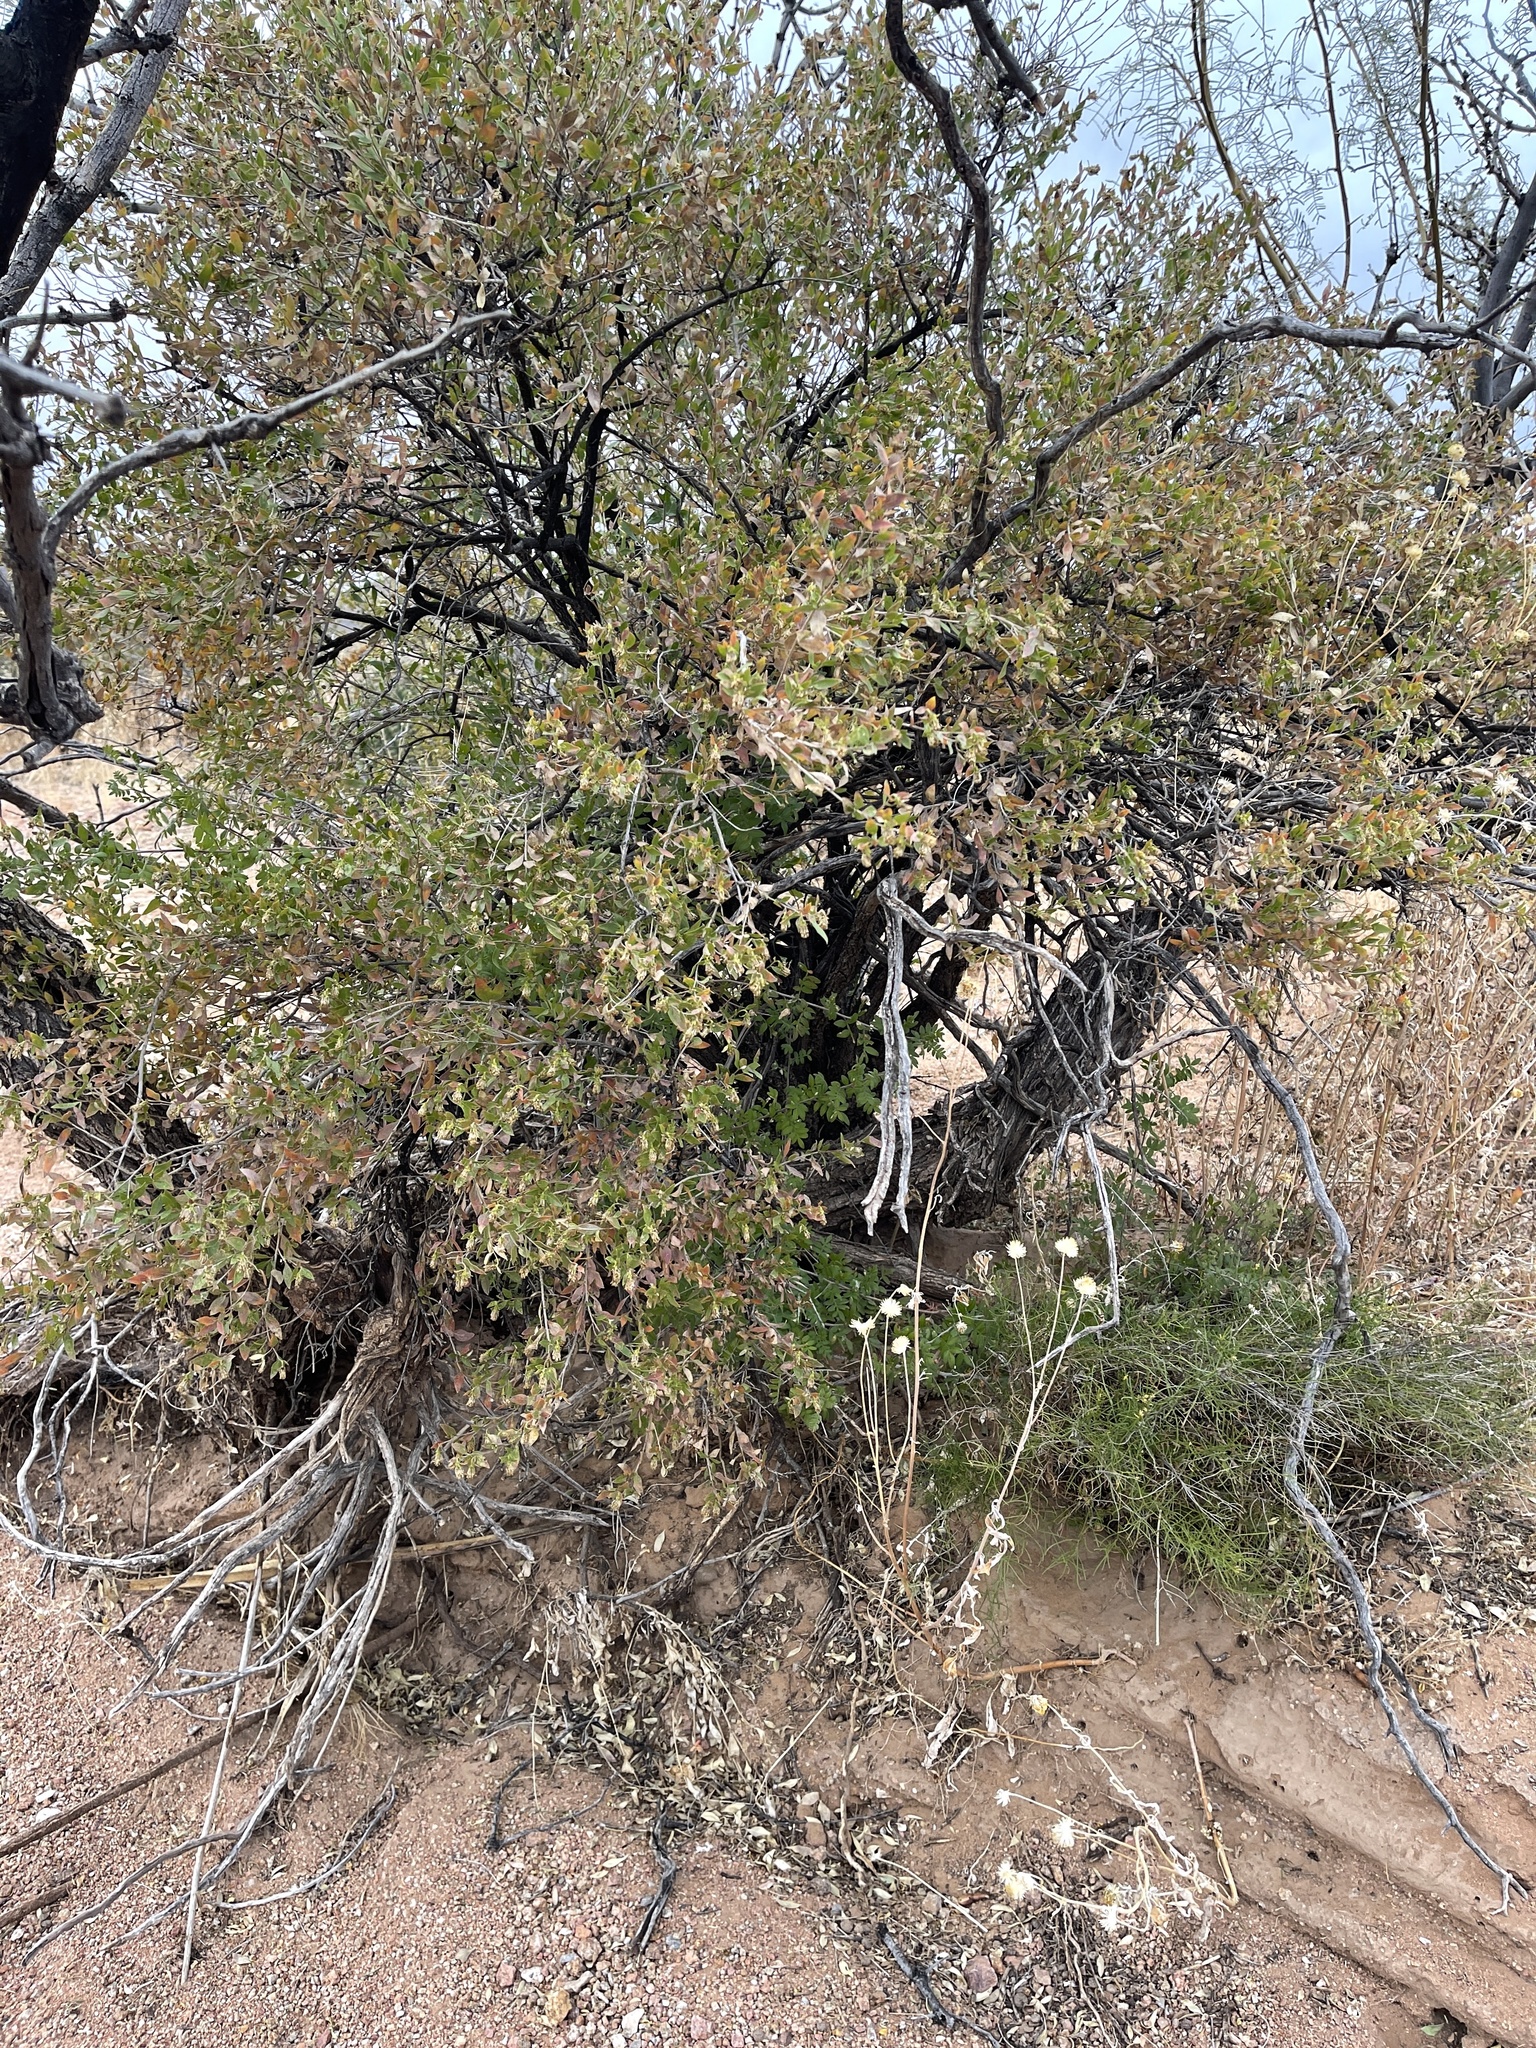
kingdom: Plantae
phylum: Tracheophyta
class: Magnoliopsida
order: Asterales
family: Asteraceae
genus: Flourensia
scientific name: Flourensia cernua
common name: Varnishbush
